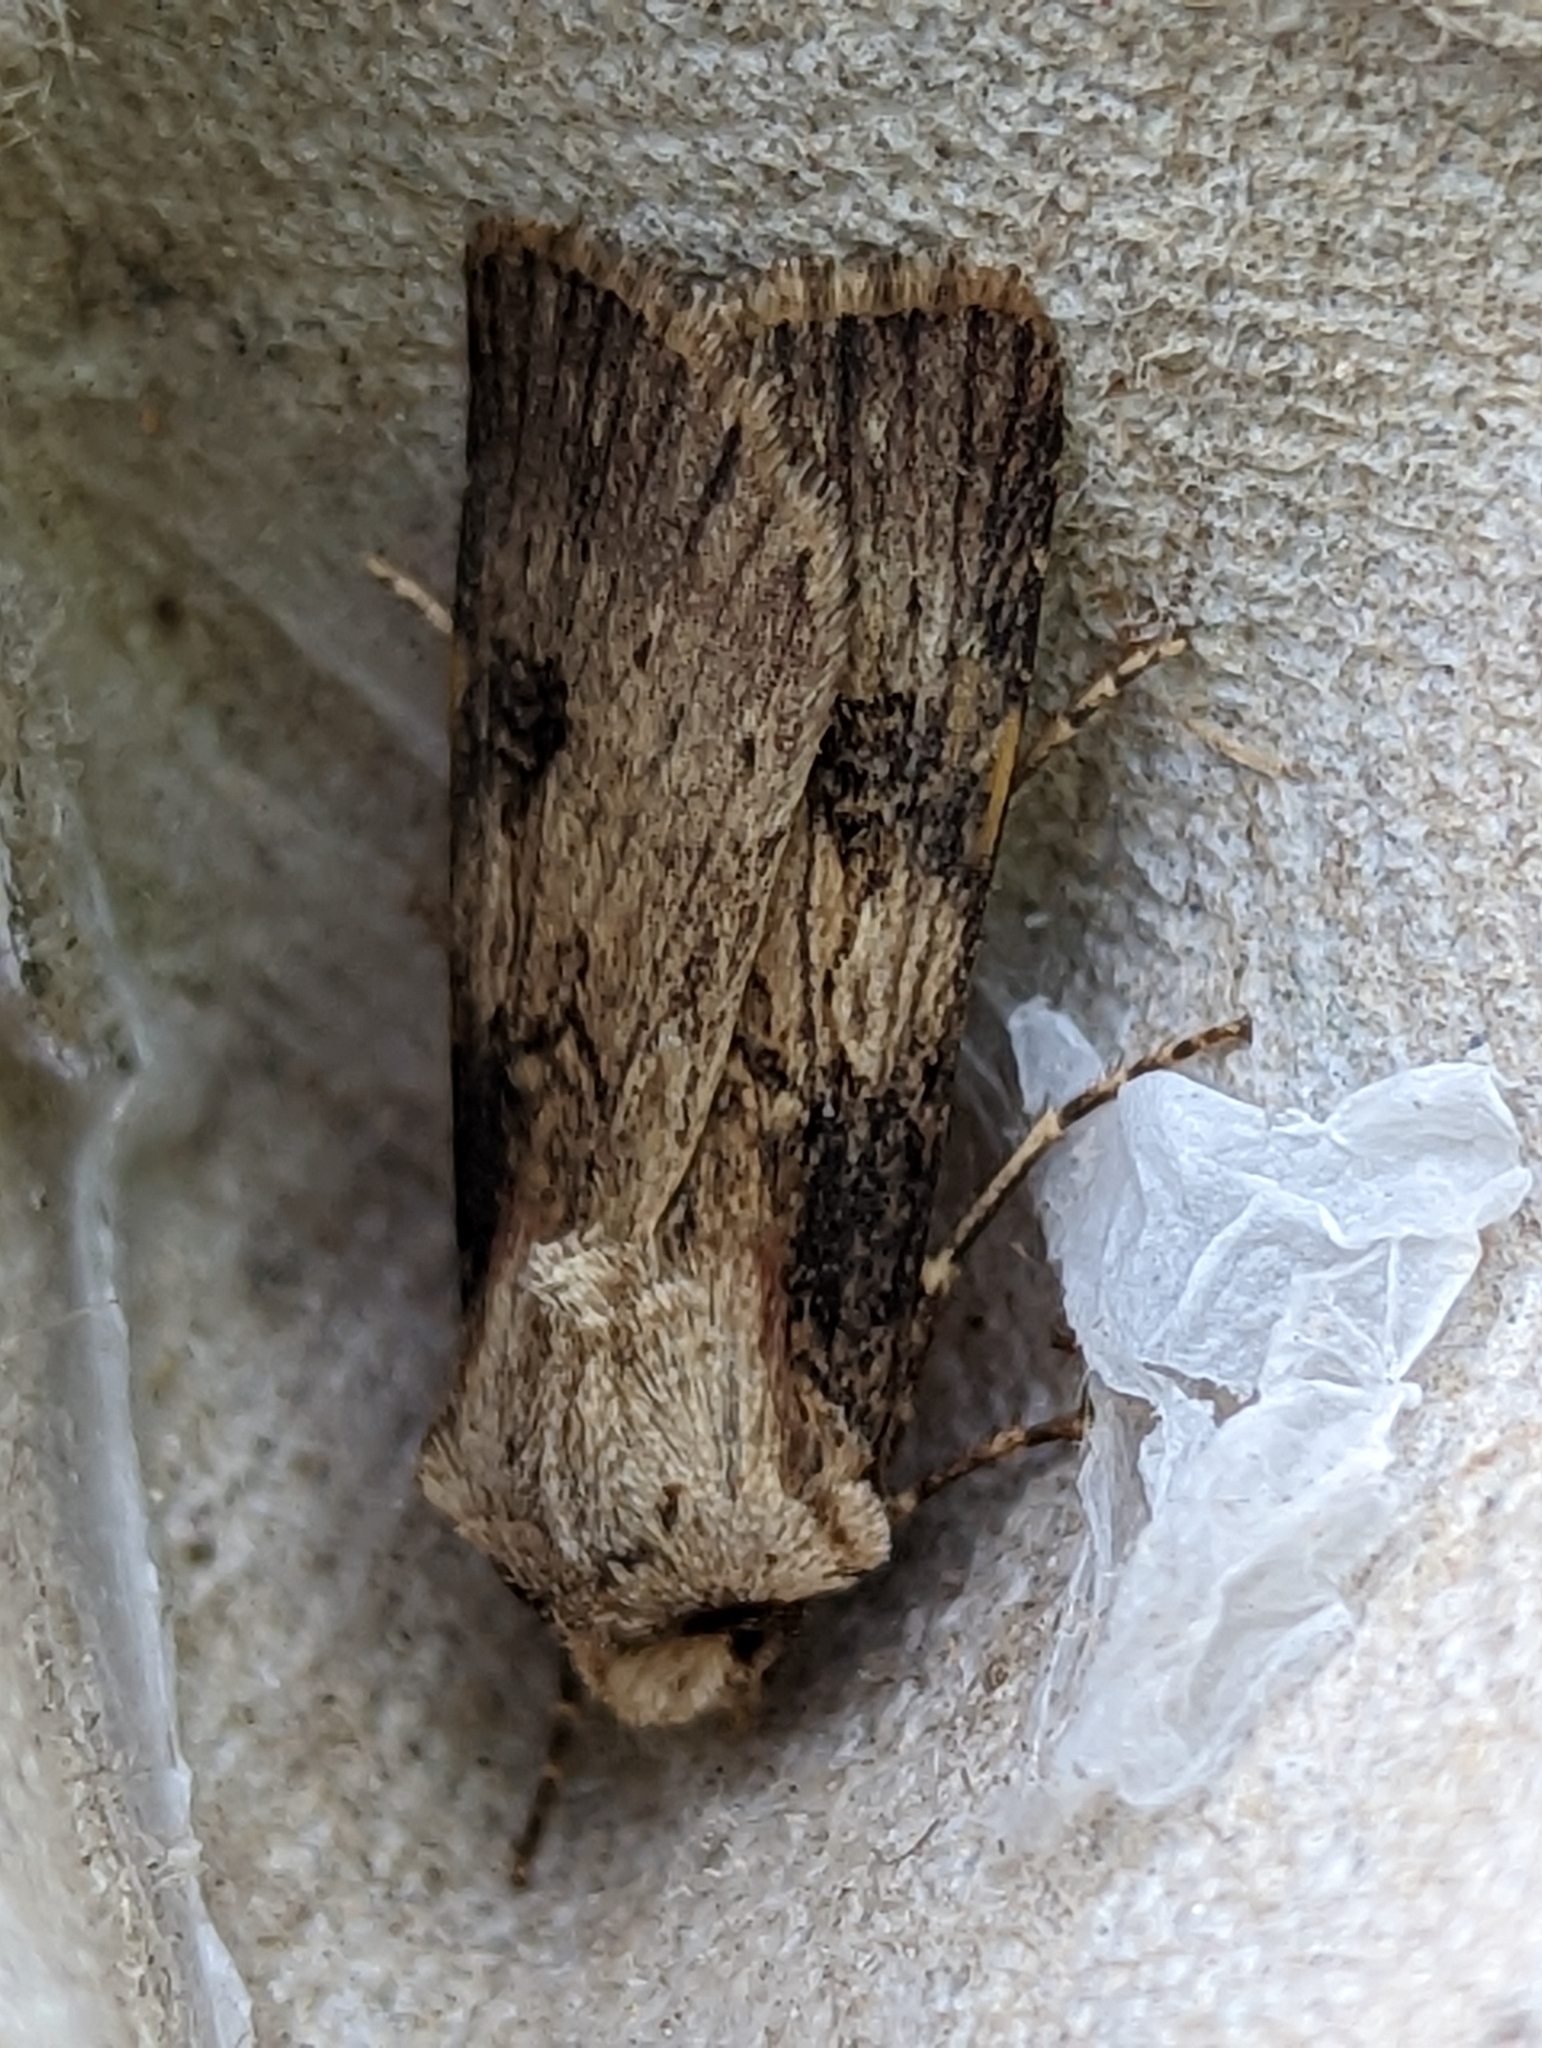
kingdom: Animalia
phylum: Arthropoda
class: Insecta
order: Lepidoptera
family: Noctuidae
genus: Agrotis
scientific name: Agrotis puta
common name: Shuttle-shaped dart
